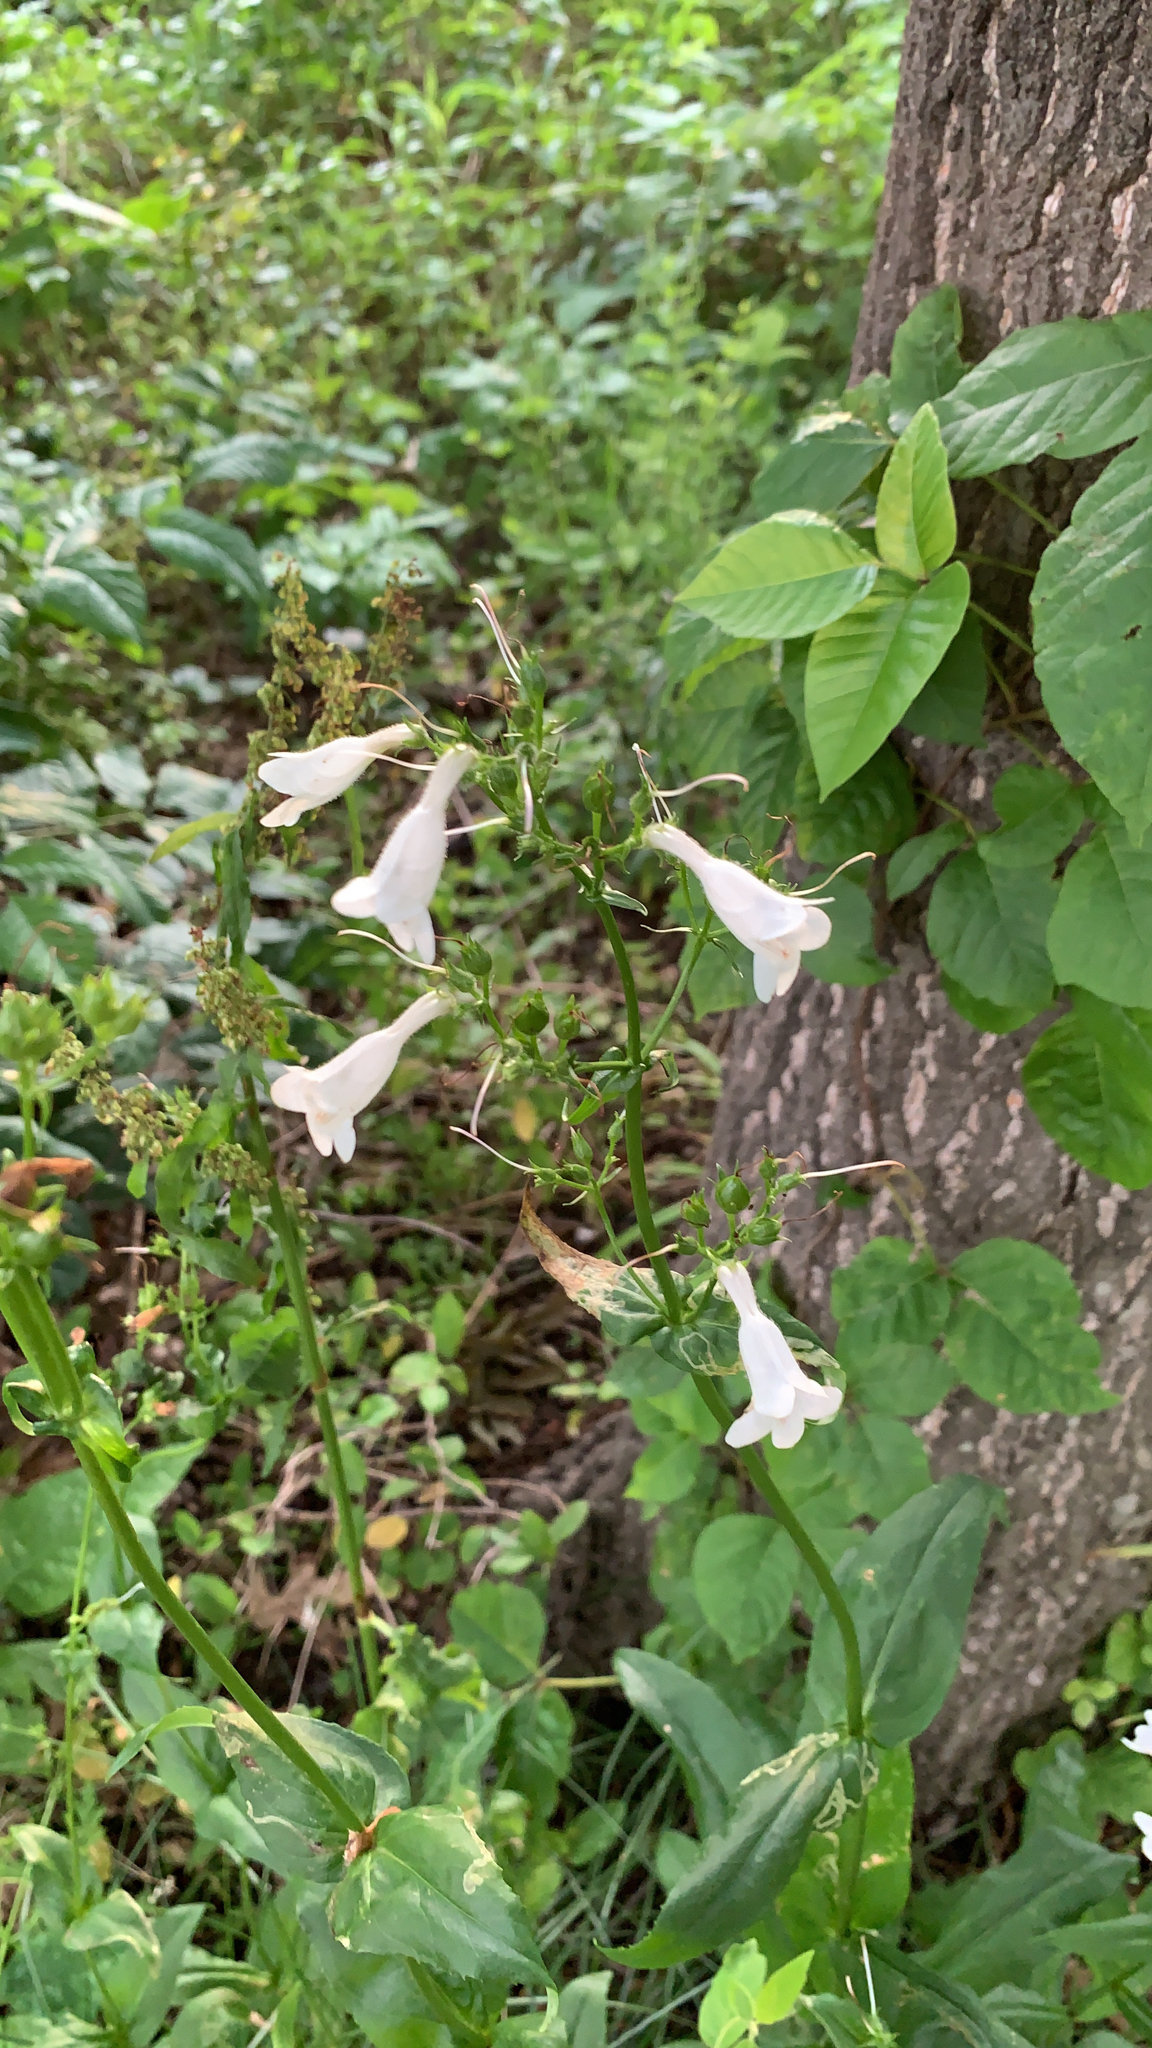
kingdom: Plantae
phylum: Tracheophyta
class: Magnoliopsida
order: Lamiales
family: Plantaginaceae
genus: Penstemon
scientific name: Penstemon digitalis
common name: Foxglove beardtongue
